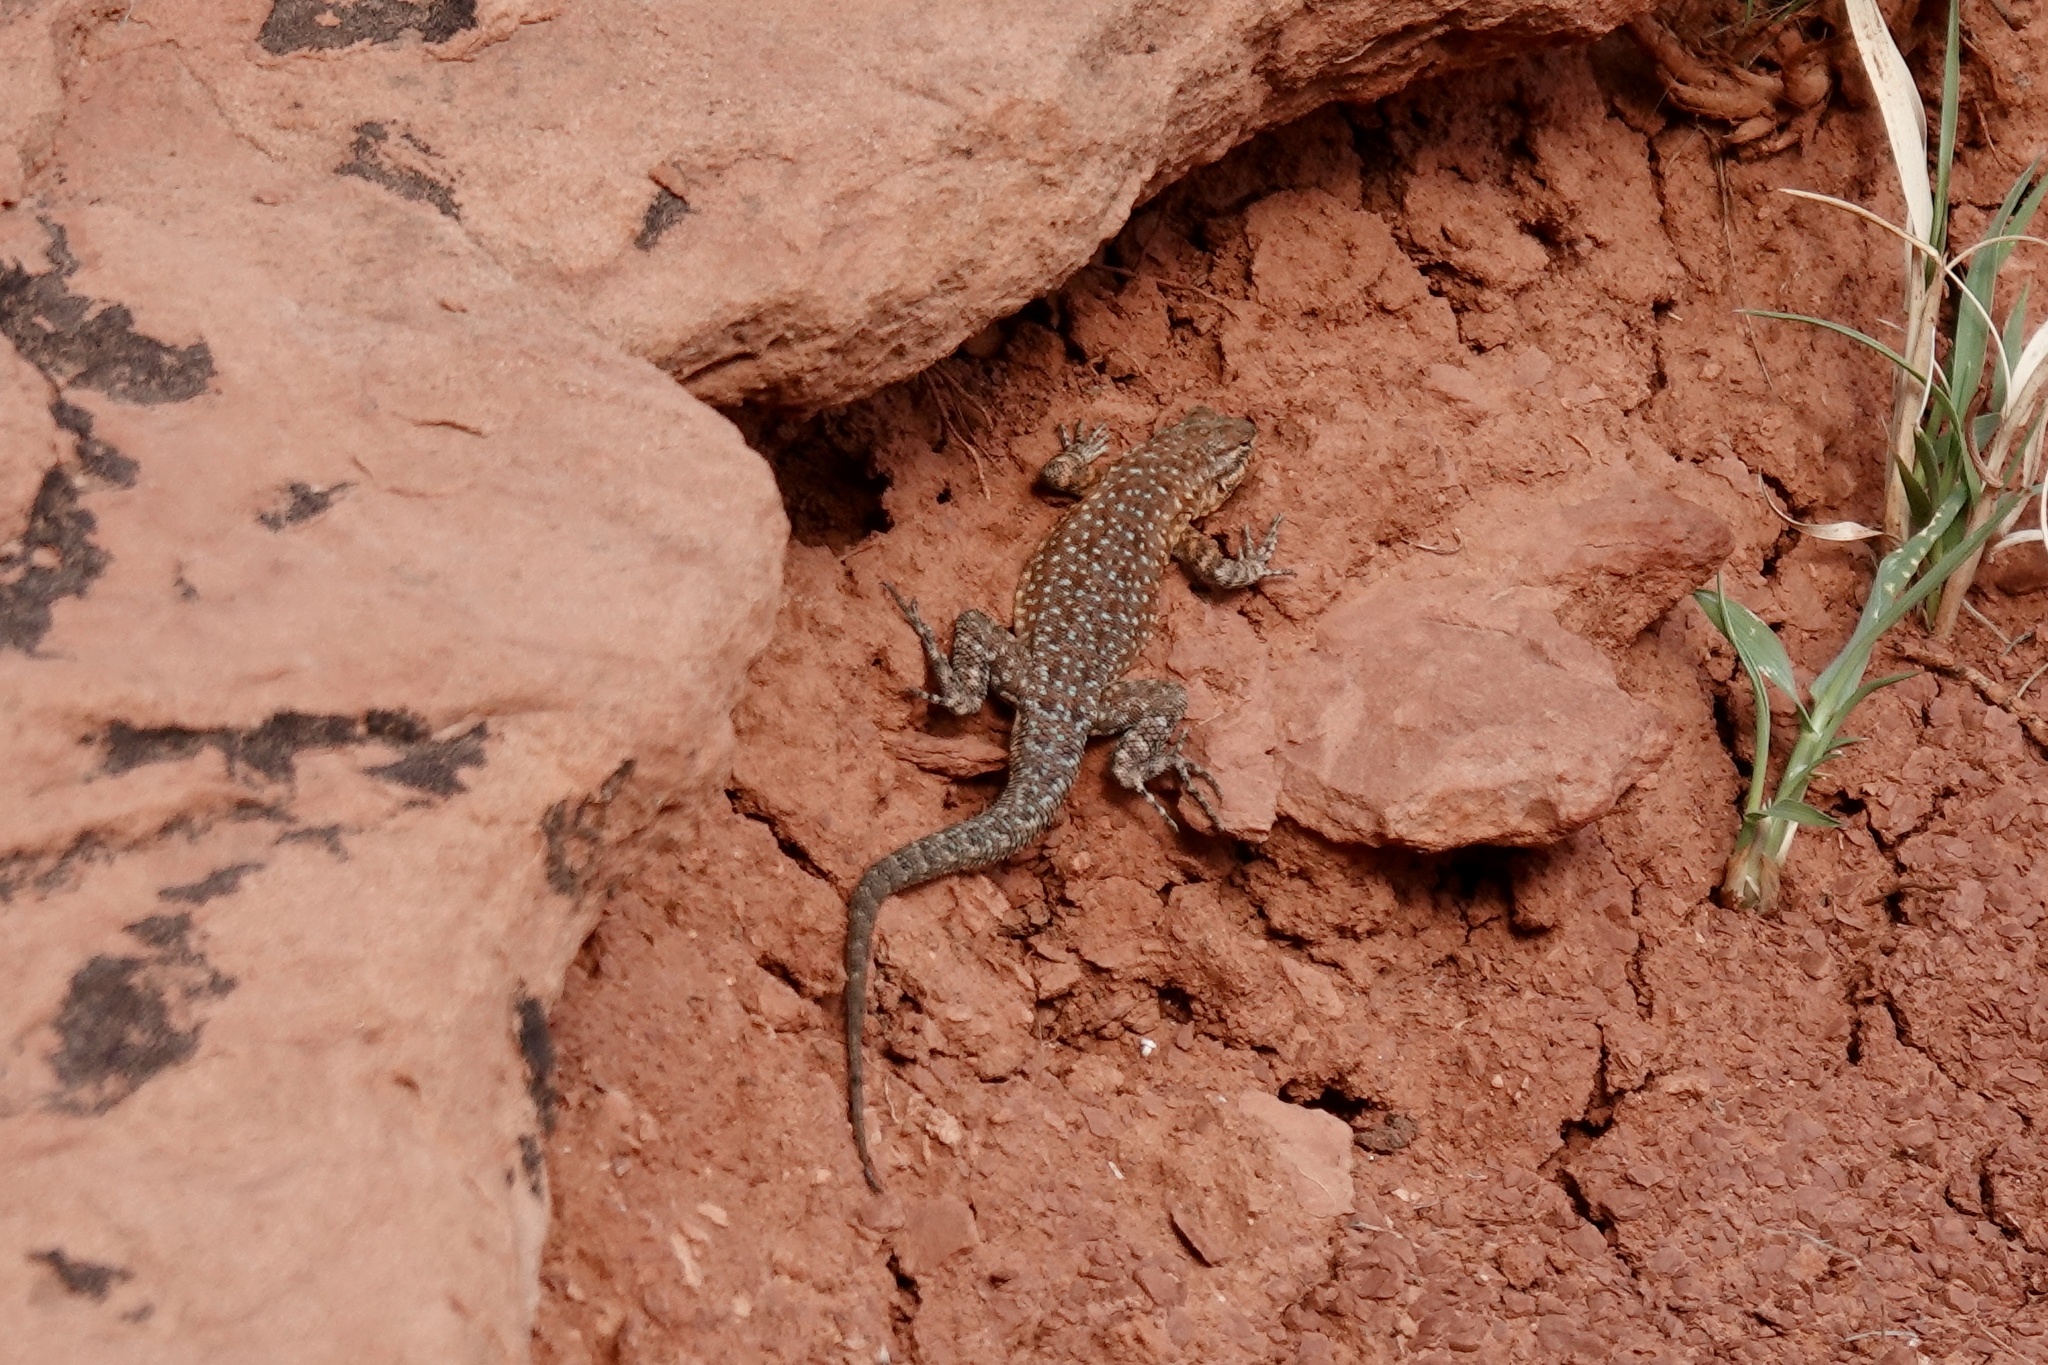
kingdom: Animalia
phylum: Chordata
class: Squamata
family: Phrynosomatidae
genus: Uta
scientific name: Uta stansburiana
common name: Side-blotched lizard
